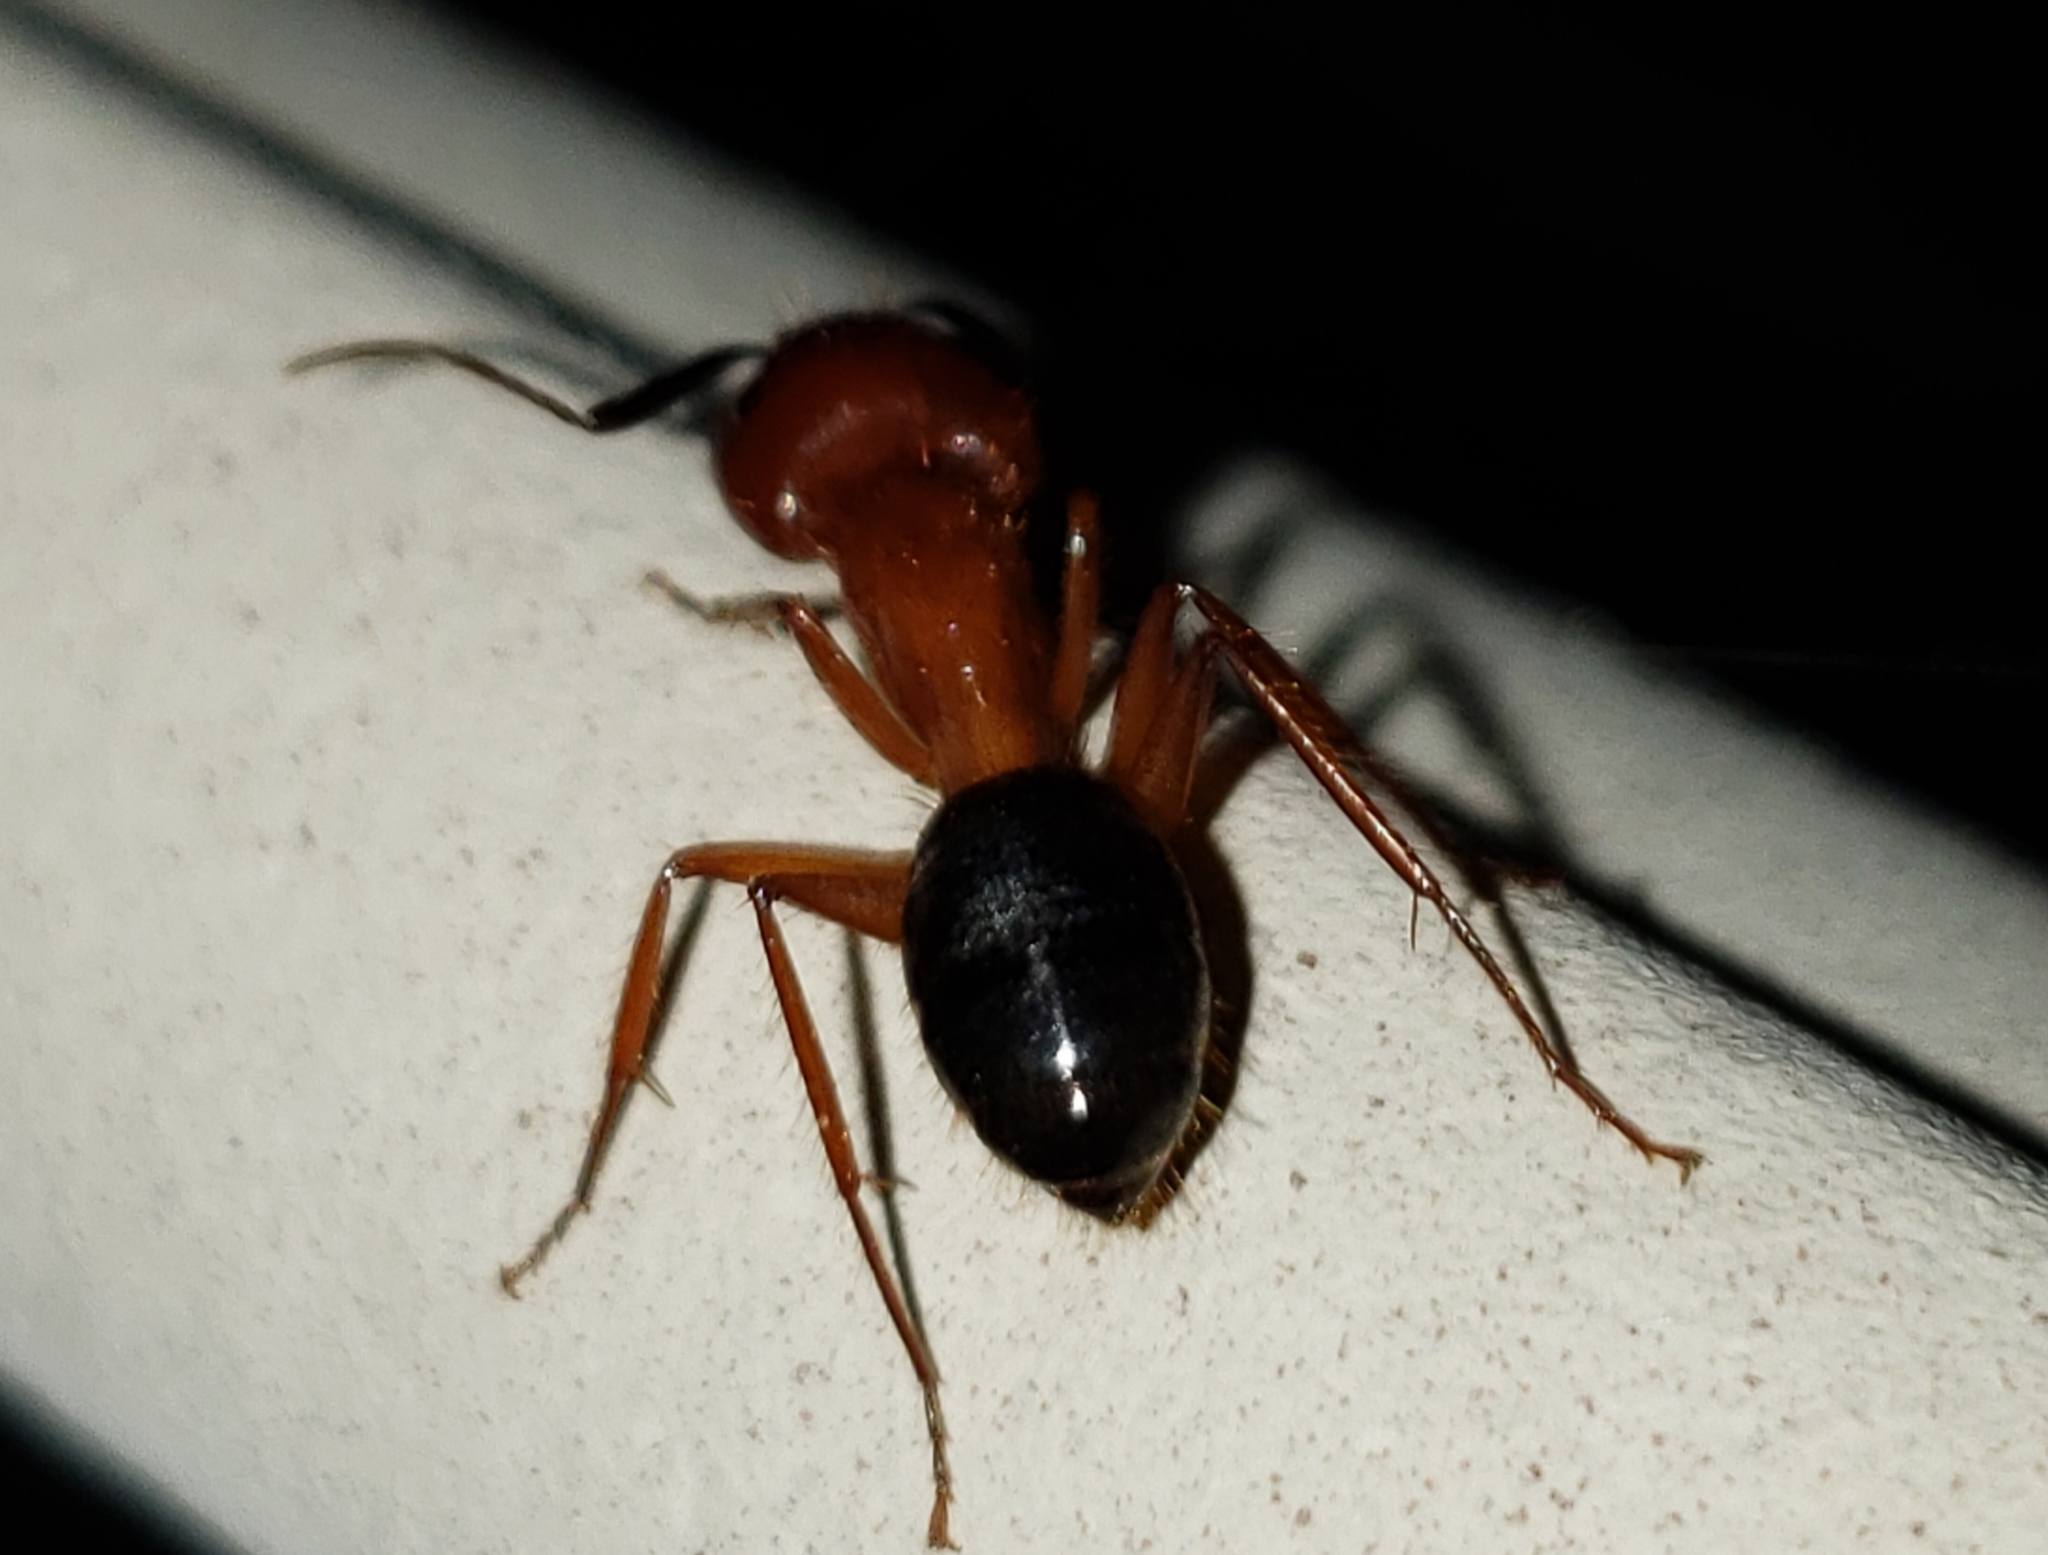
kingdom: Animalia
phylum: Arthropoda
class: Insecta
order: Hymenoptera
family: Formicidae
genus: Camponotus
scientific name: Camponotus floridanus
